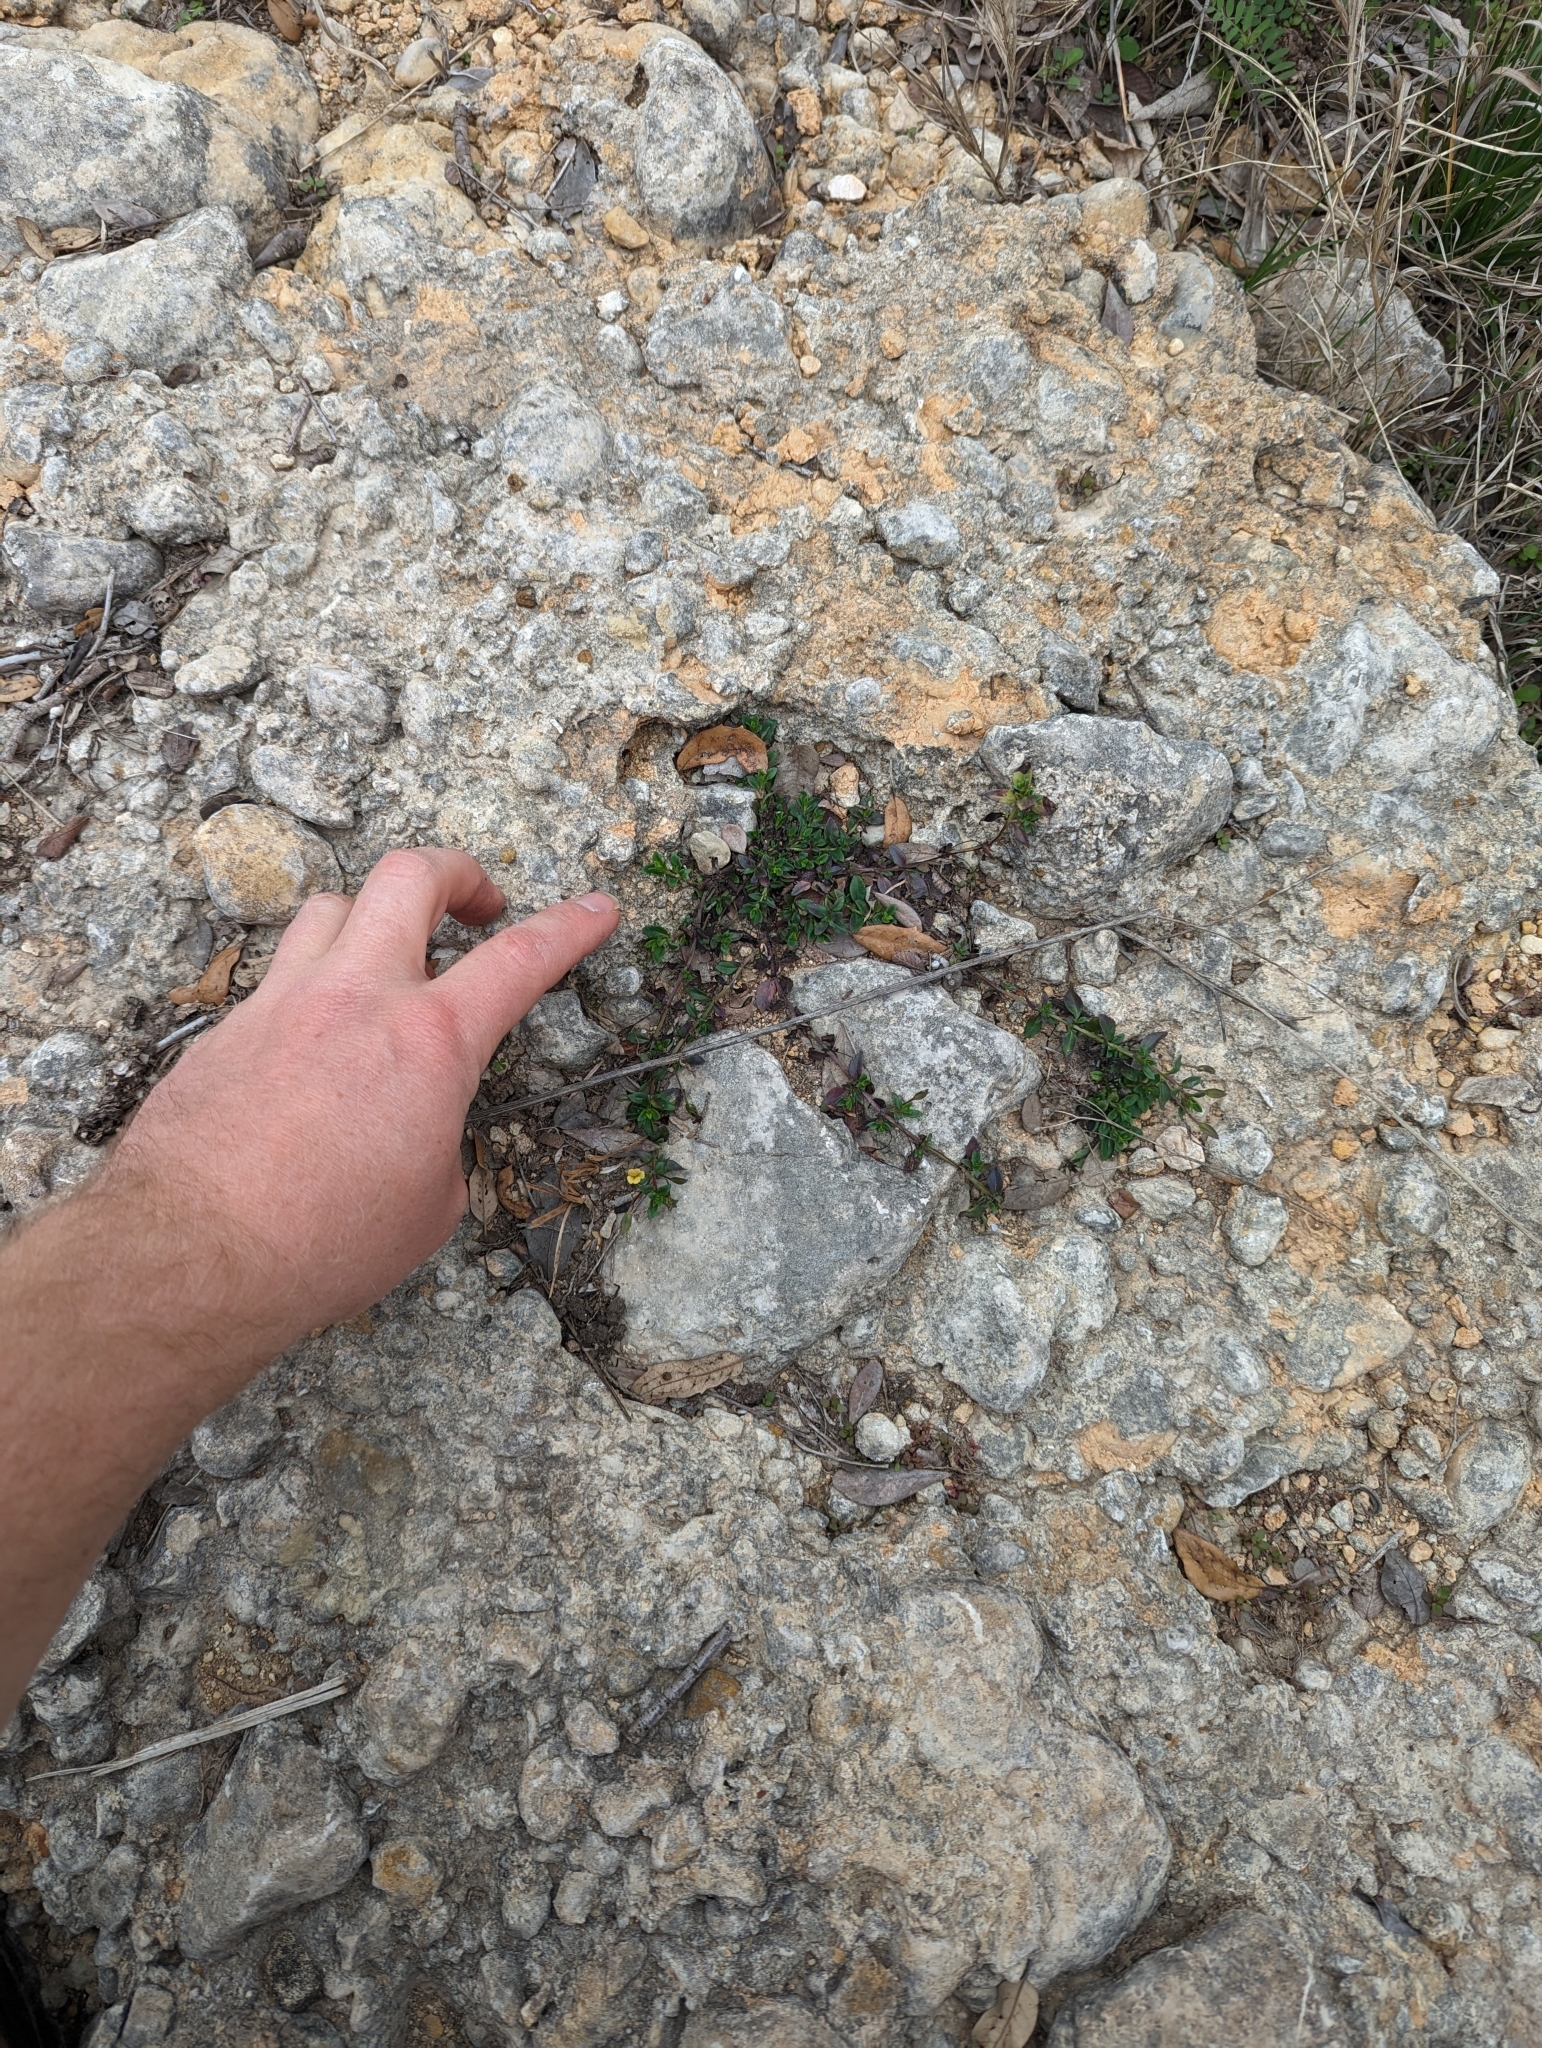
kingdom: Plantae
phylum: Tracheophyta
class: Magnoliopsida
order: Lamiales
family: Plantaginaceae
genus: Mecardonia
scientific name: Mecardonia procumbens
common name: Baby jump-up
